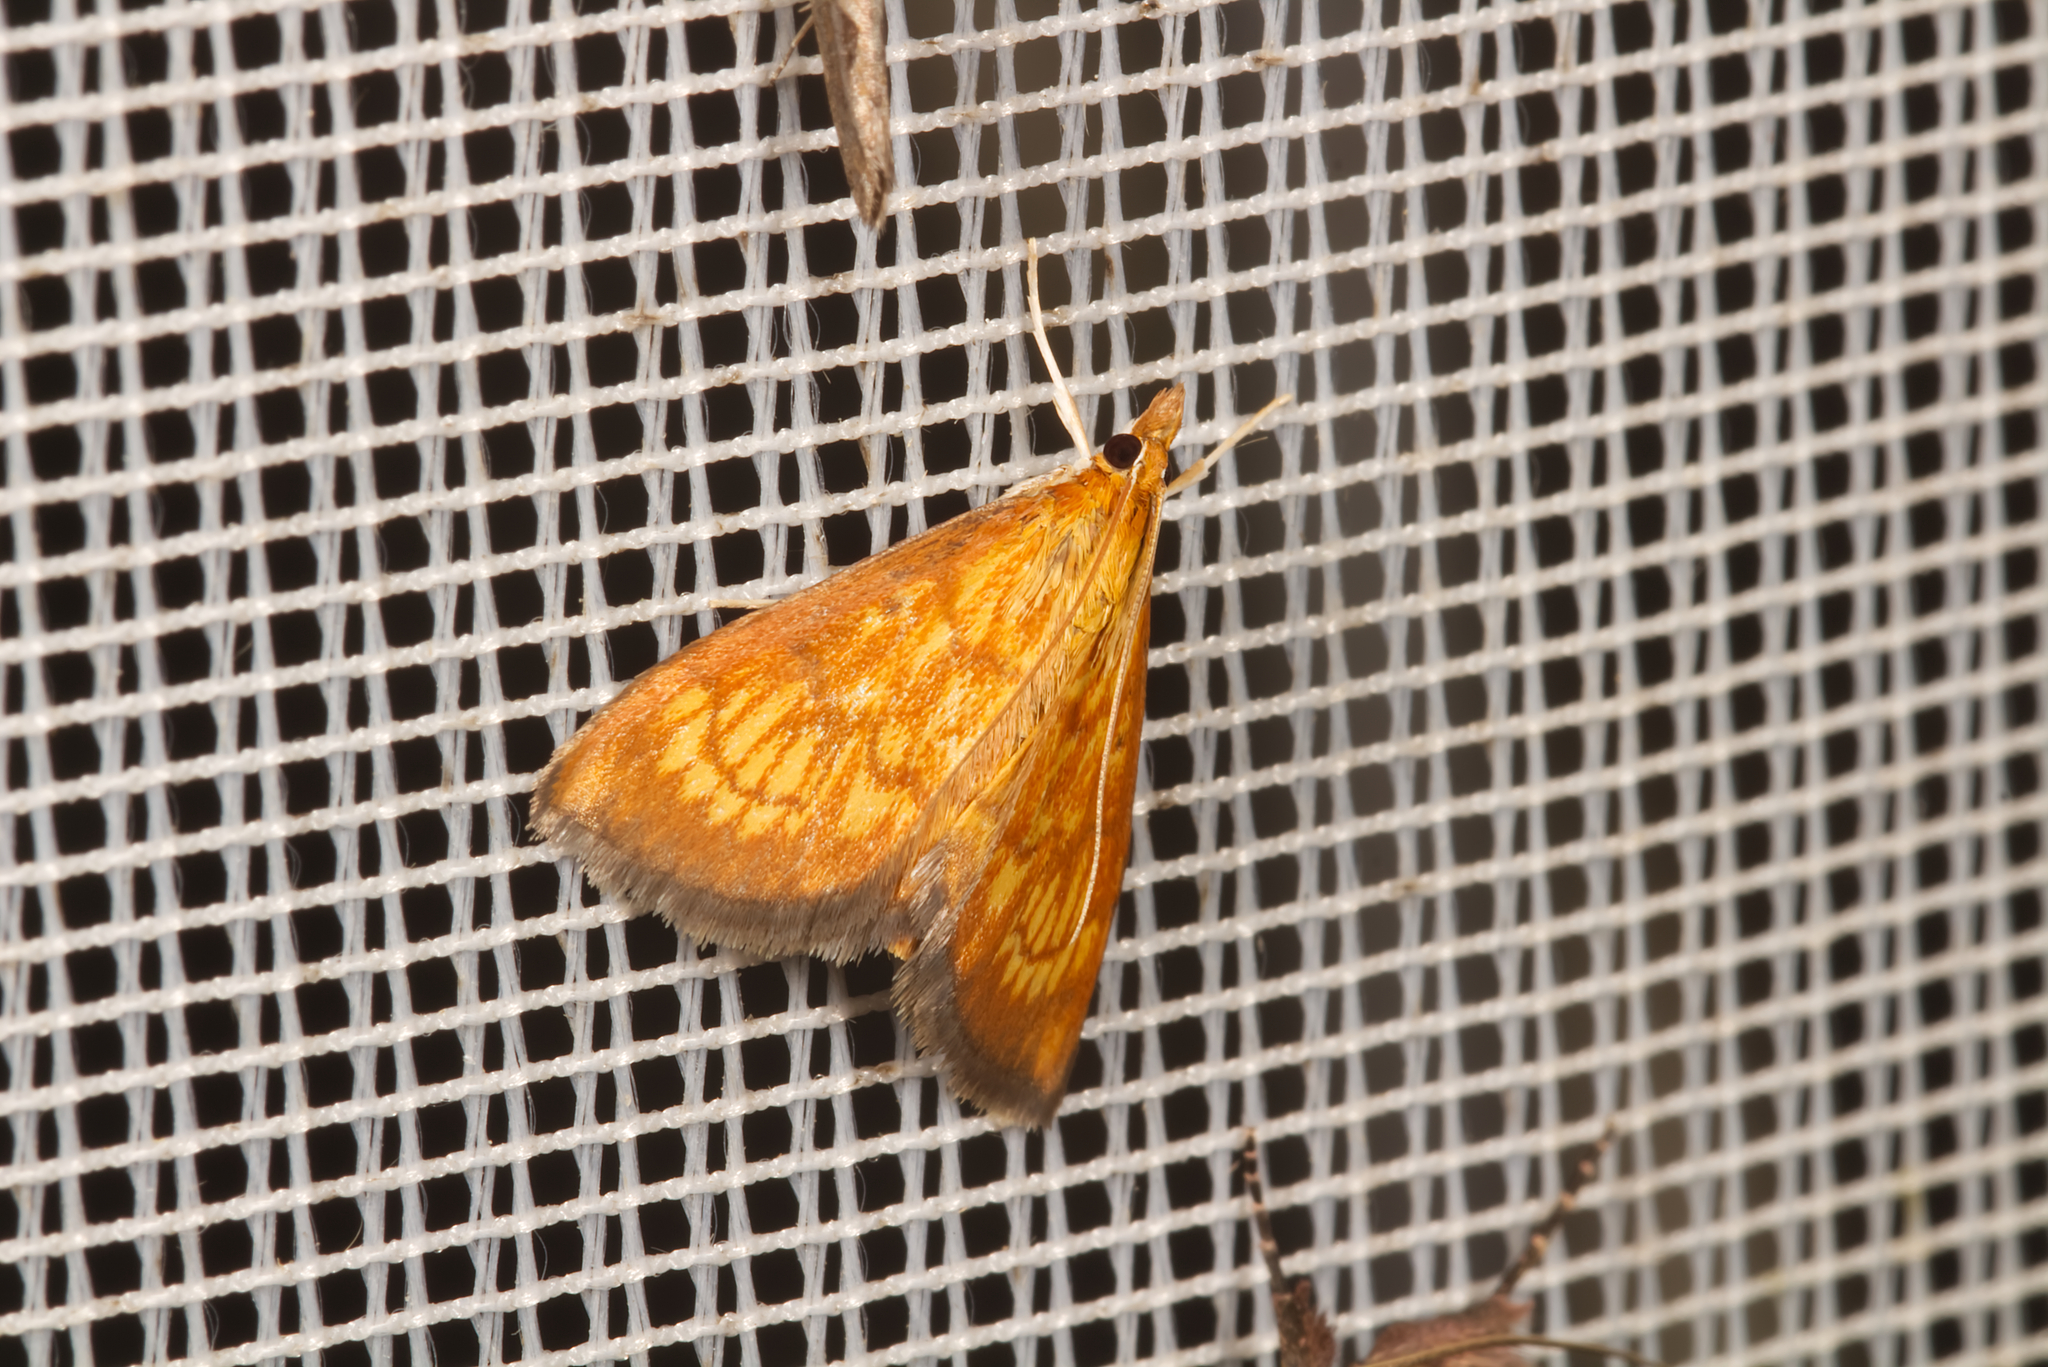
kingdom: Animalia
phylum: Arthropoda
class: Insecta
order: Lepidoptera
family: Crambidae
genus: Ecpyrrhorrhoe
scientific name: Ecpyrrhorrhoe rubiginalis
